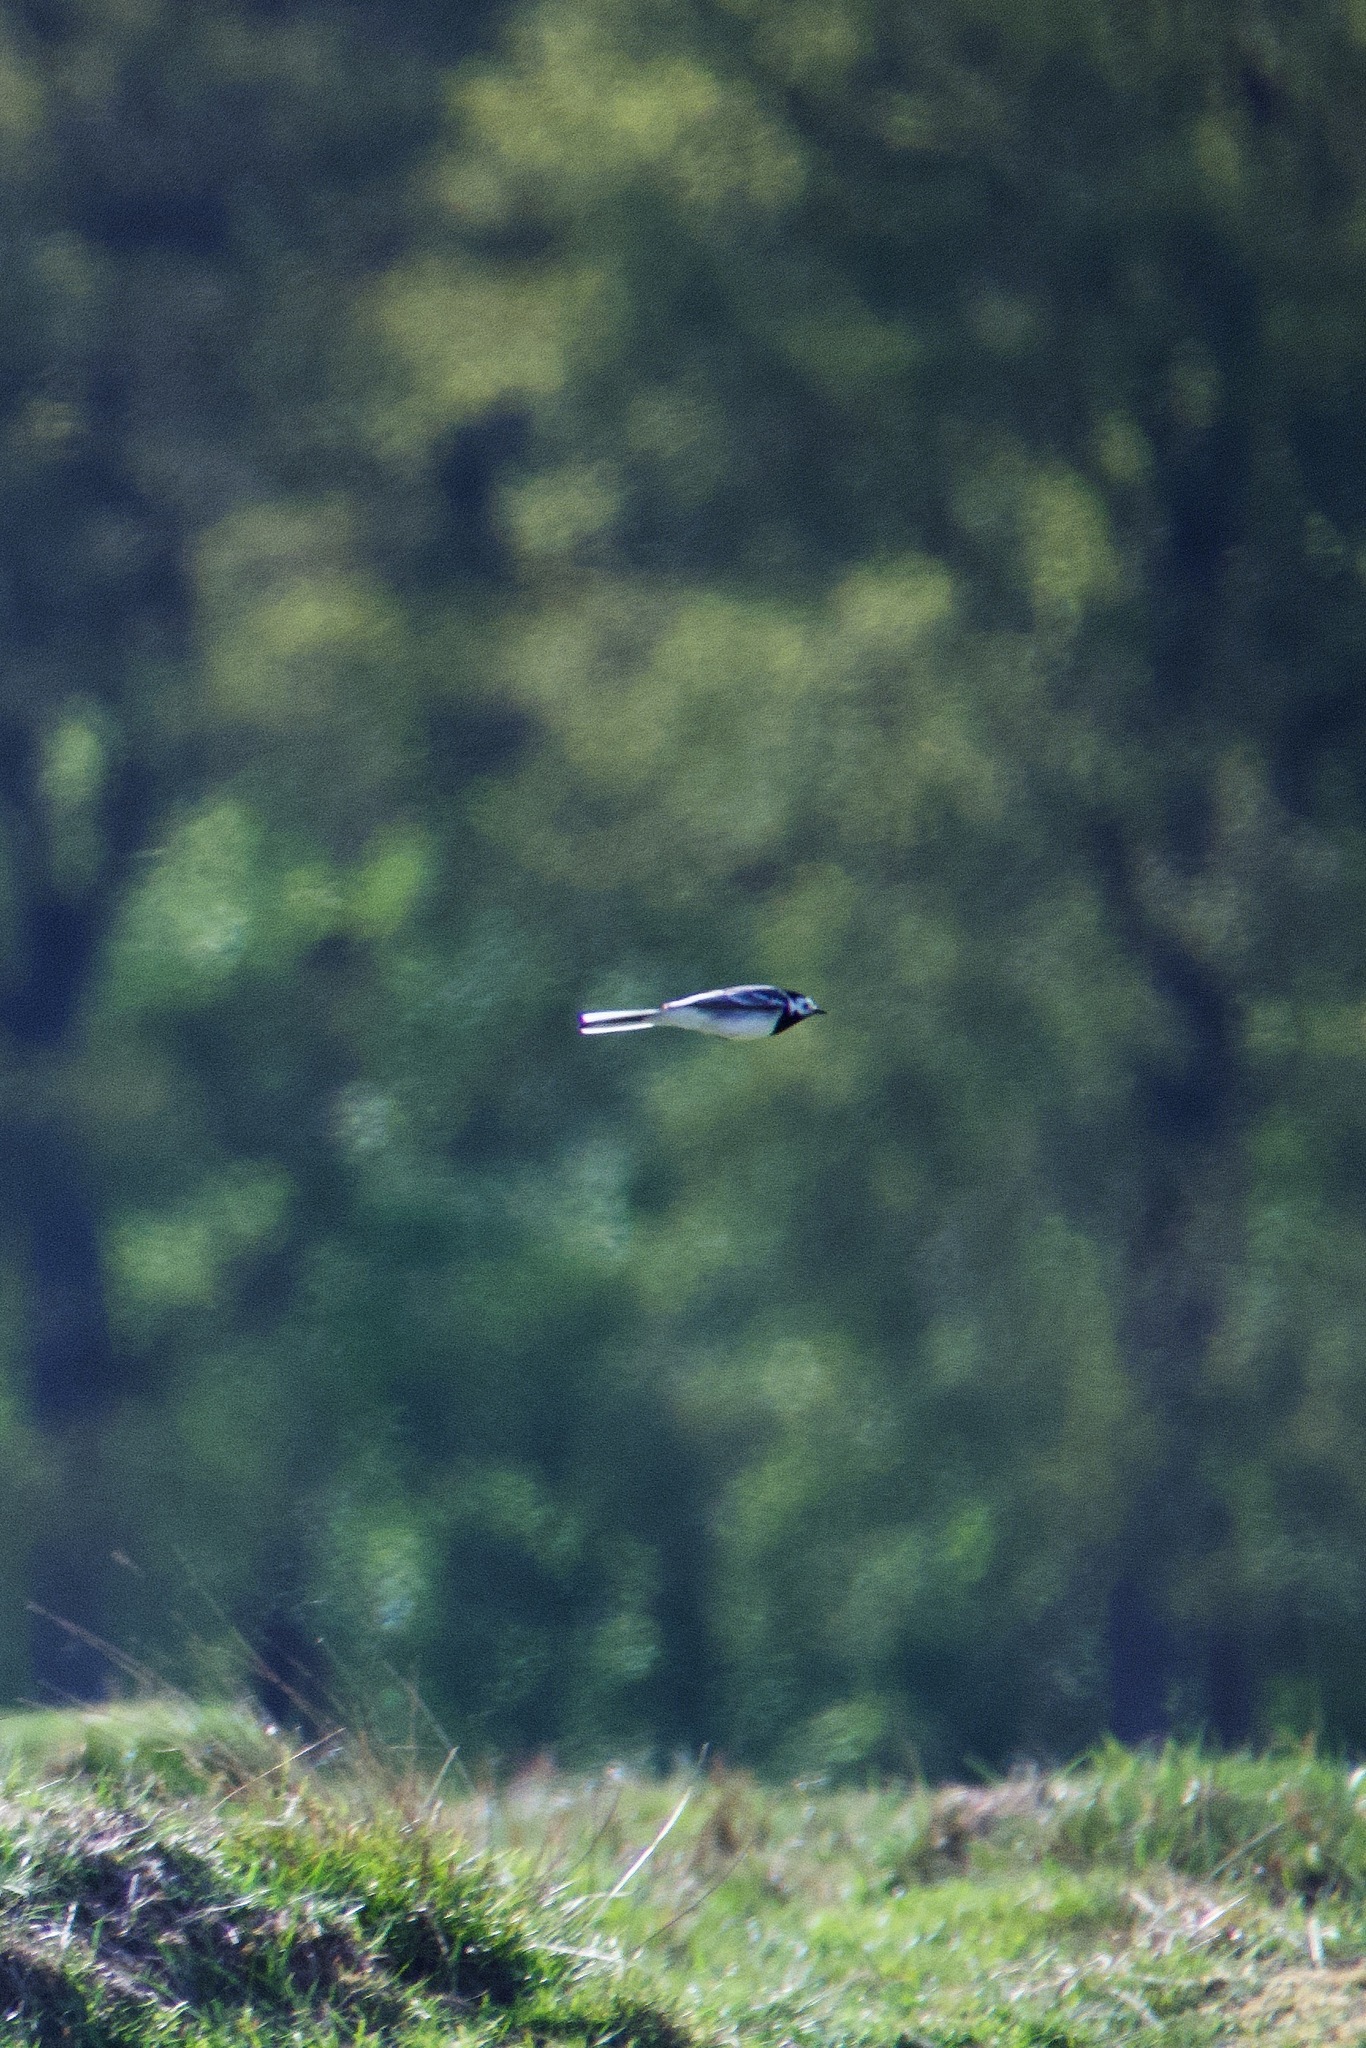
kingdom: Animalia
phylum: Chordata
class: Aves
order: Passeriformes
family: Motacillidae
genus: Motacilla
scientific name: Motacilla alba
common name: White wagtail
